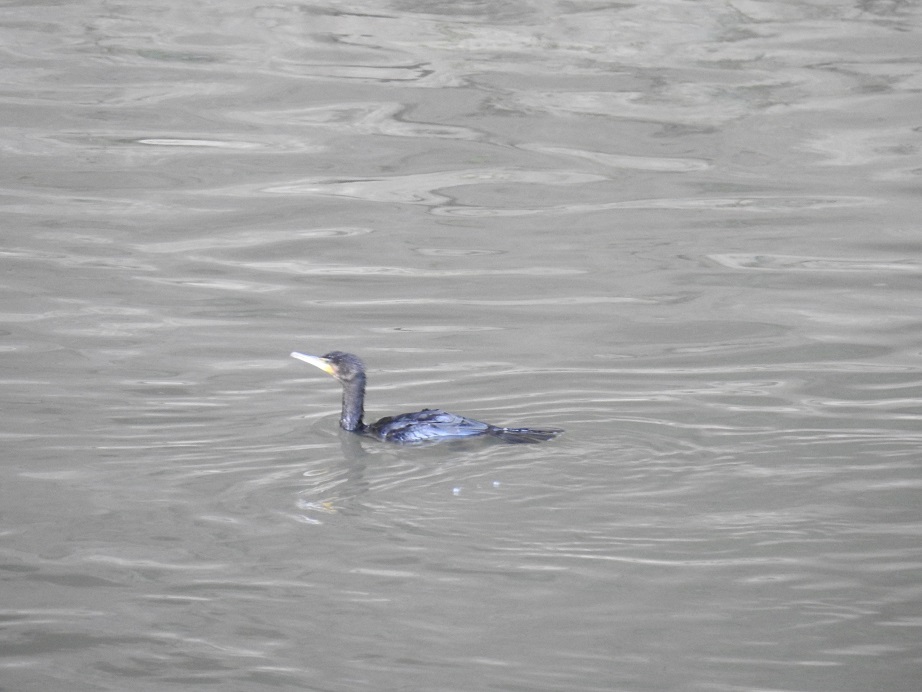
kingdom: Animalia
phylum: Chordata
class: Aves
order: Suliformes
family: Phalacrocoracidae
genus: Phalacrocorax
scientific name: Phalacrocorax carbo
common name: Great cormorant
